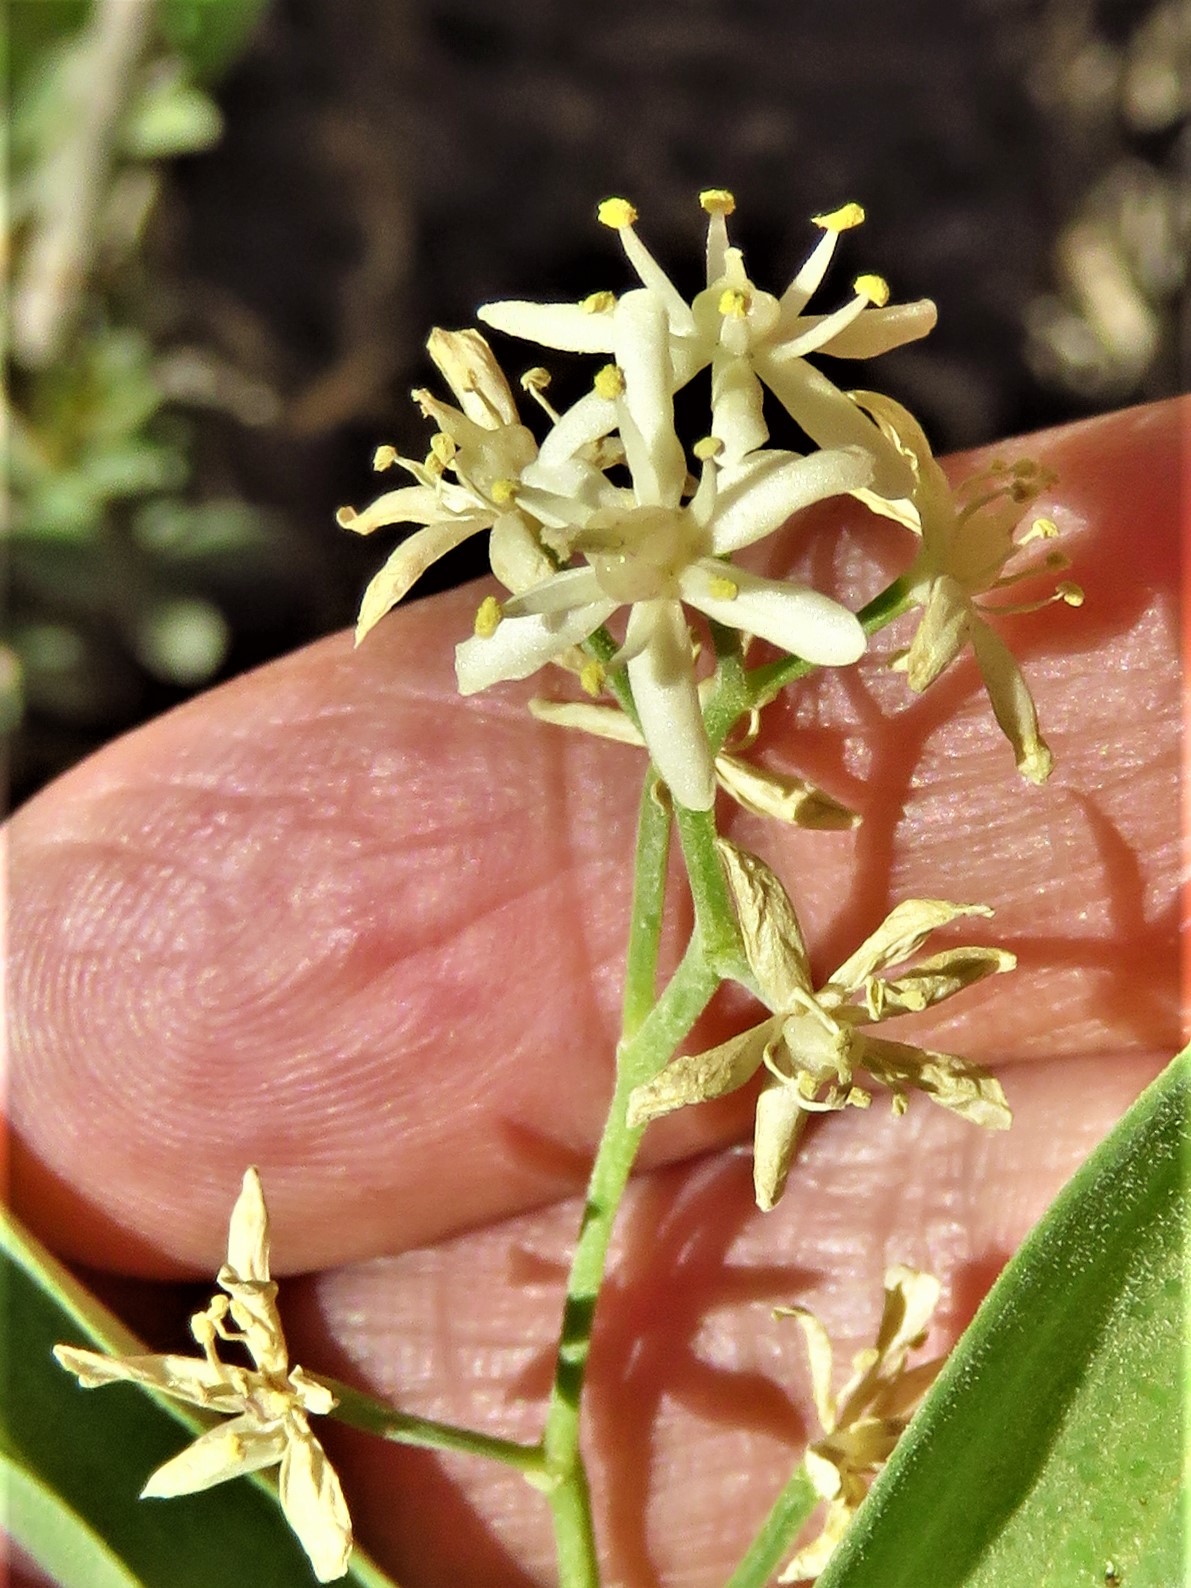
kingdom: Plantae
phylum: Tracheophyta
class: Liliopsida
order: Asparagales
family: Asparagaceae
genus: Maianthemum
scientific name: Maianthemum stellatum
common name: Little false solomon's seal
